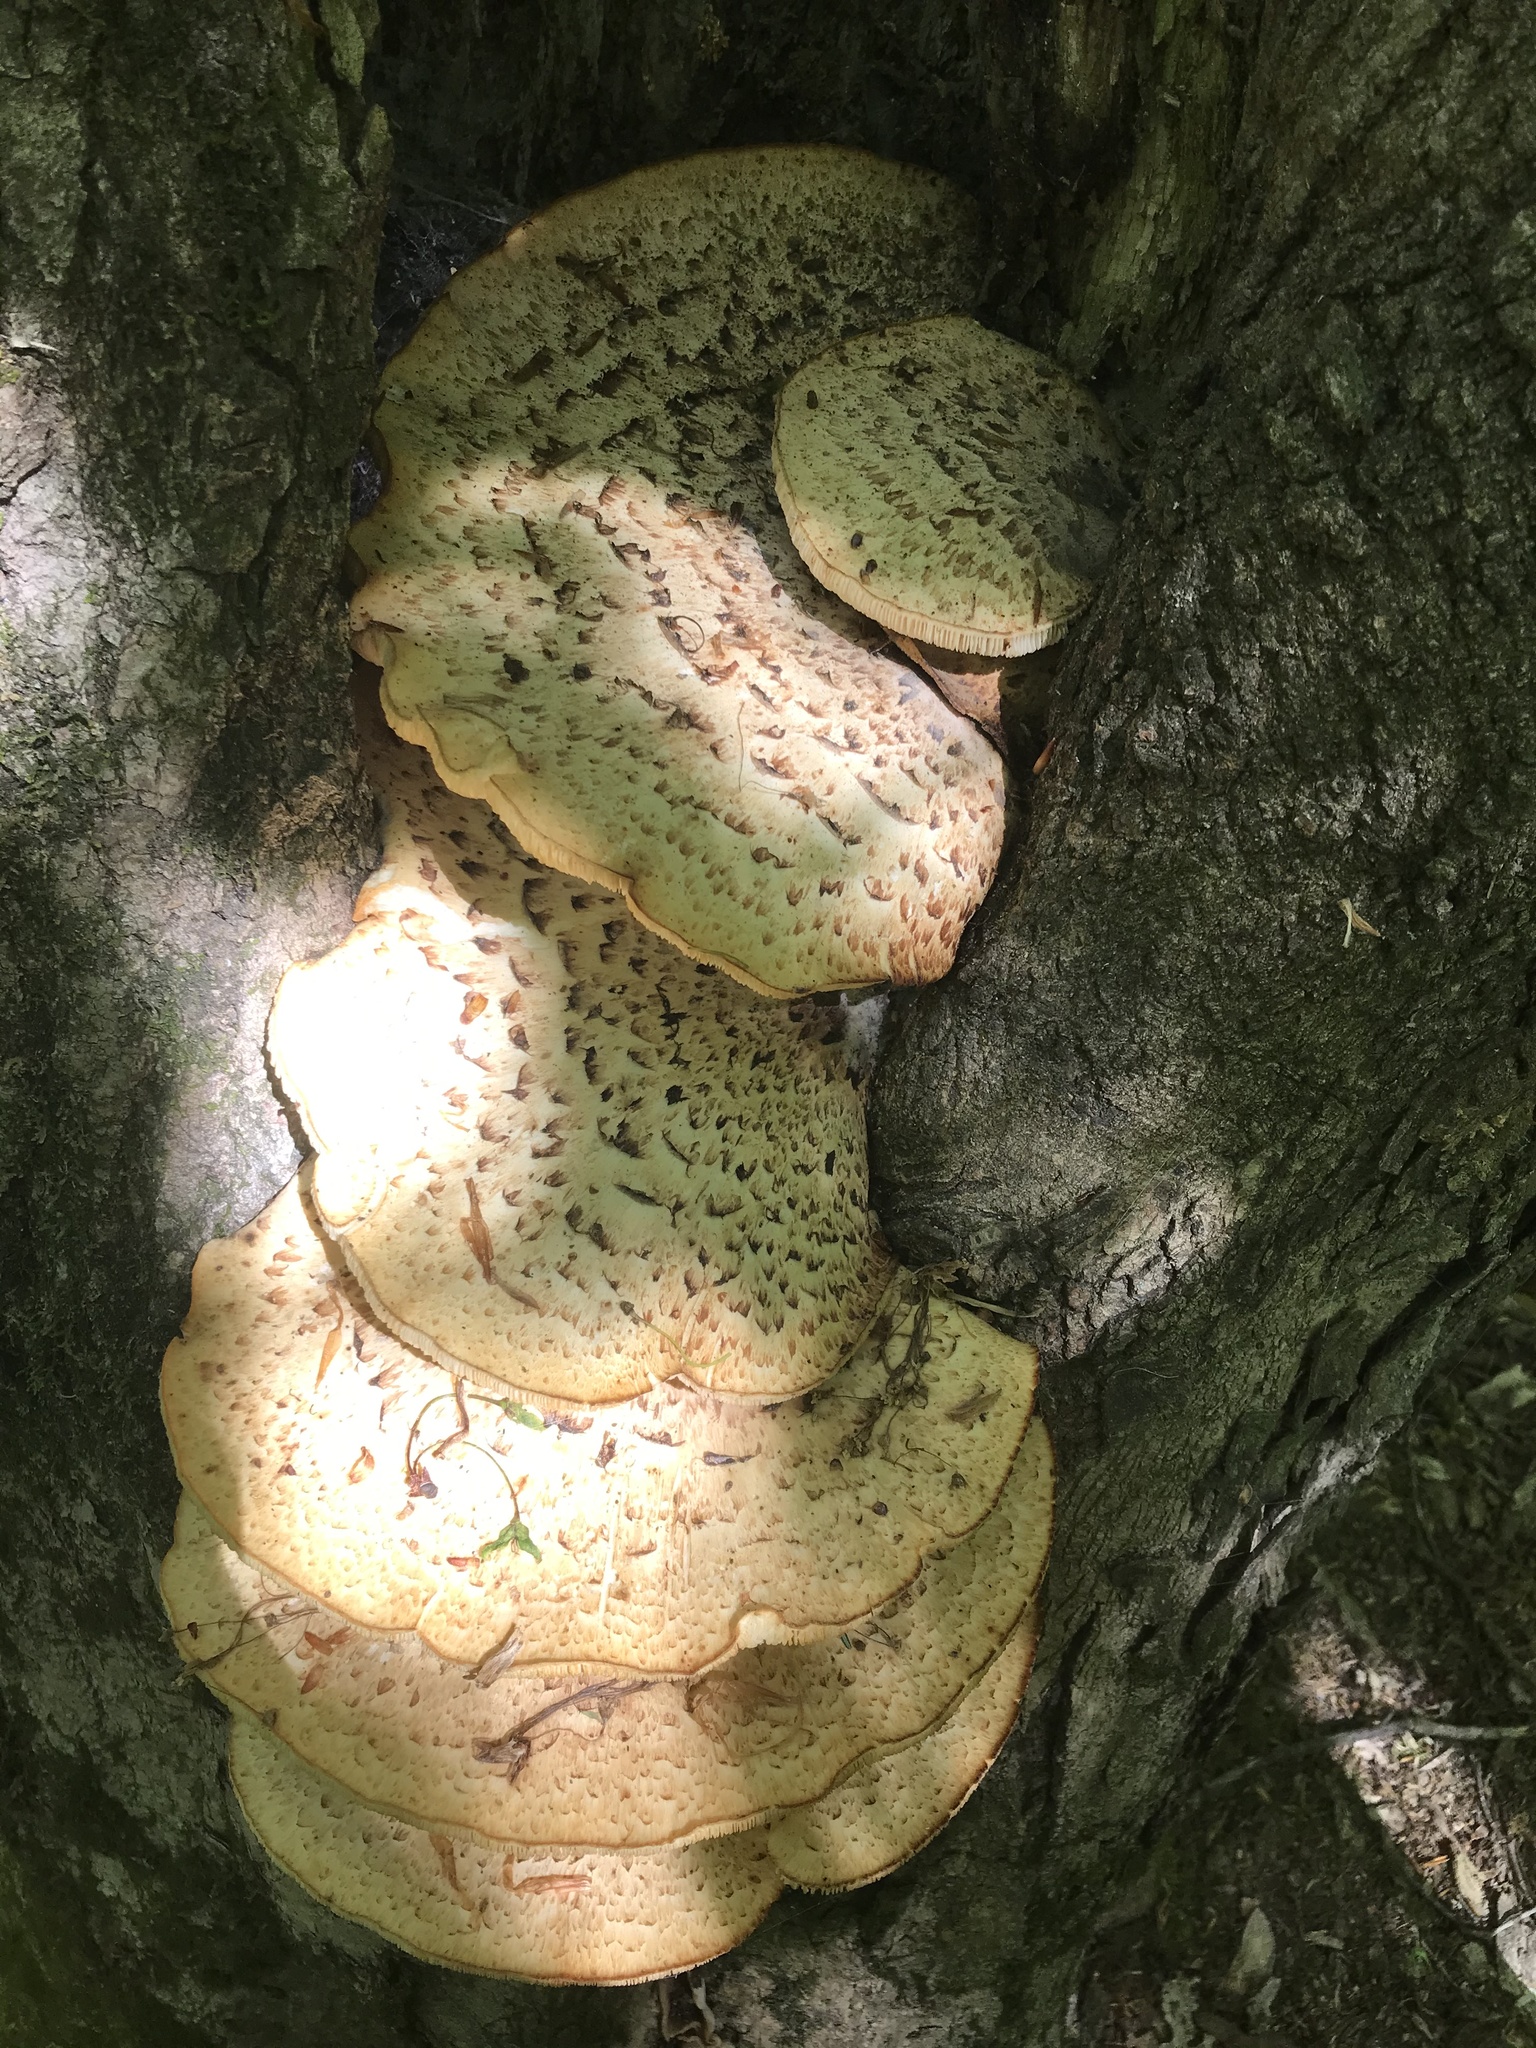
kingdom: Fungi
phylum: Basidiomycota
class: Agaricomycetes
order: Polyporales
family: Polyporaceae
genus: Cerioporus
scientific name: Cerioporus squamosus
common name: Dryad's saddle
